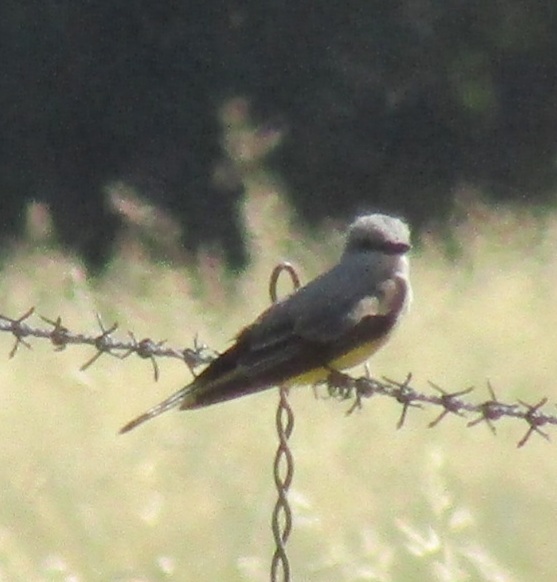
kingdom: Animalia
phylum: Chordata
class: Aves
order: Passeriformes
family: Tyrannidae
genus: Tyrannus
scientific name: Tyrannus verticalis
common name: Western kingbird
